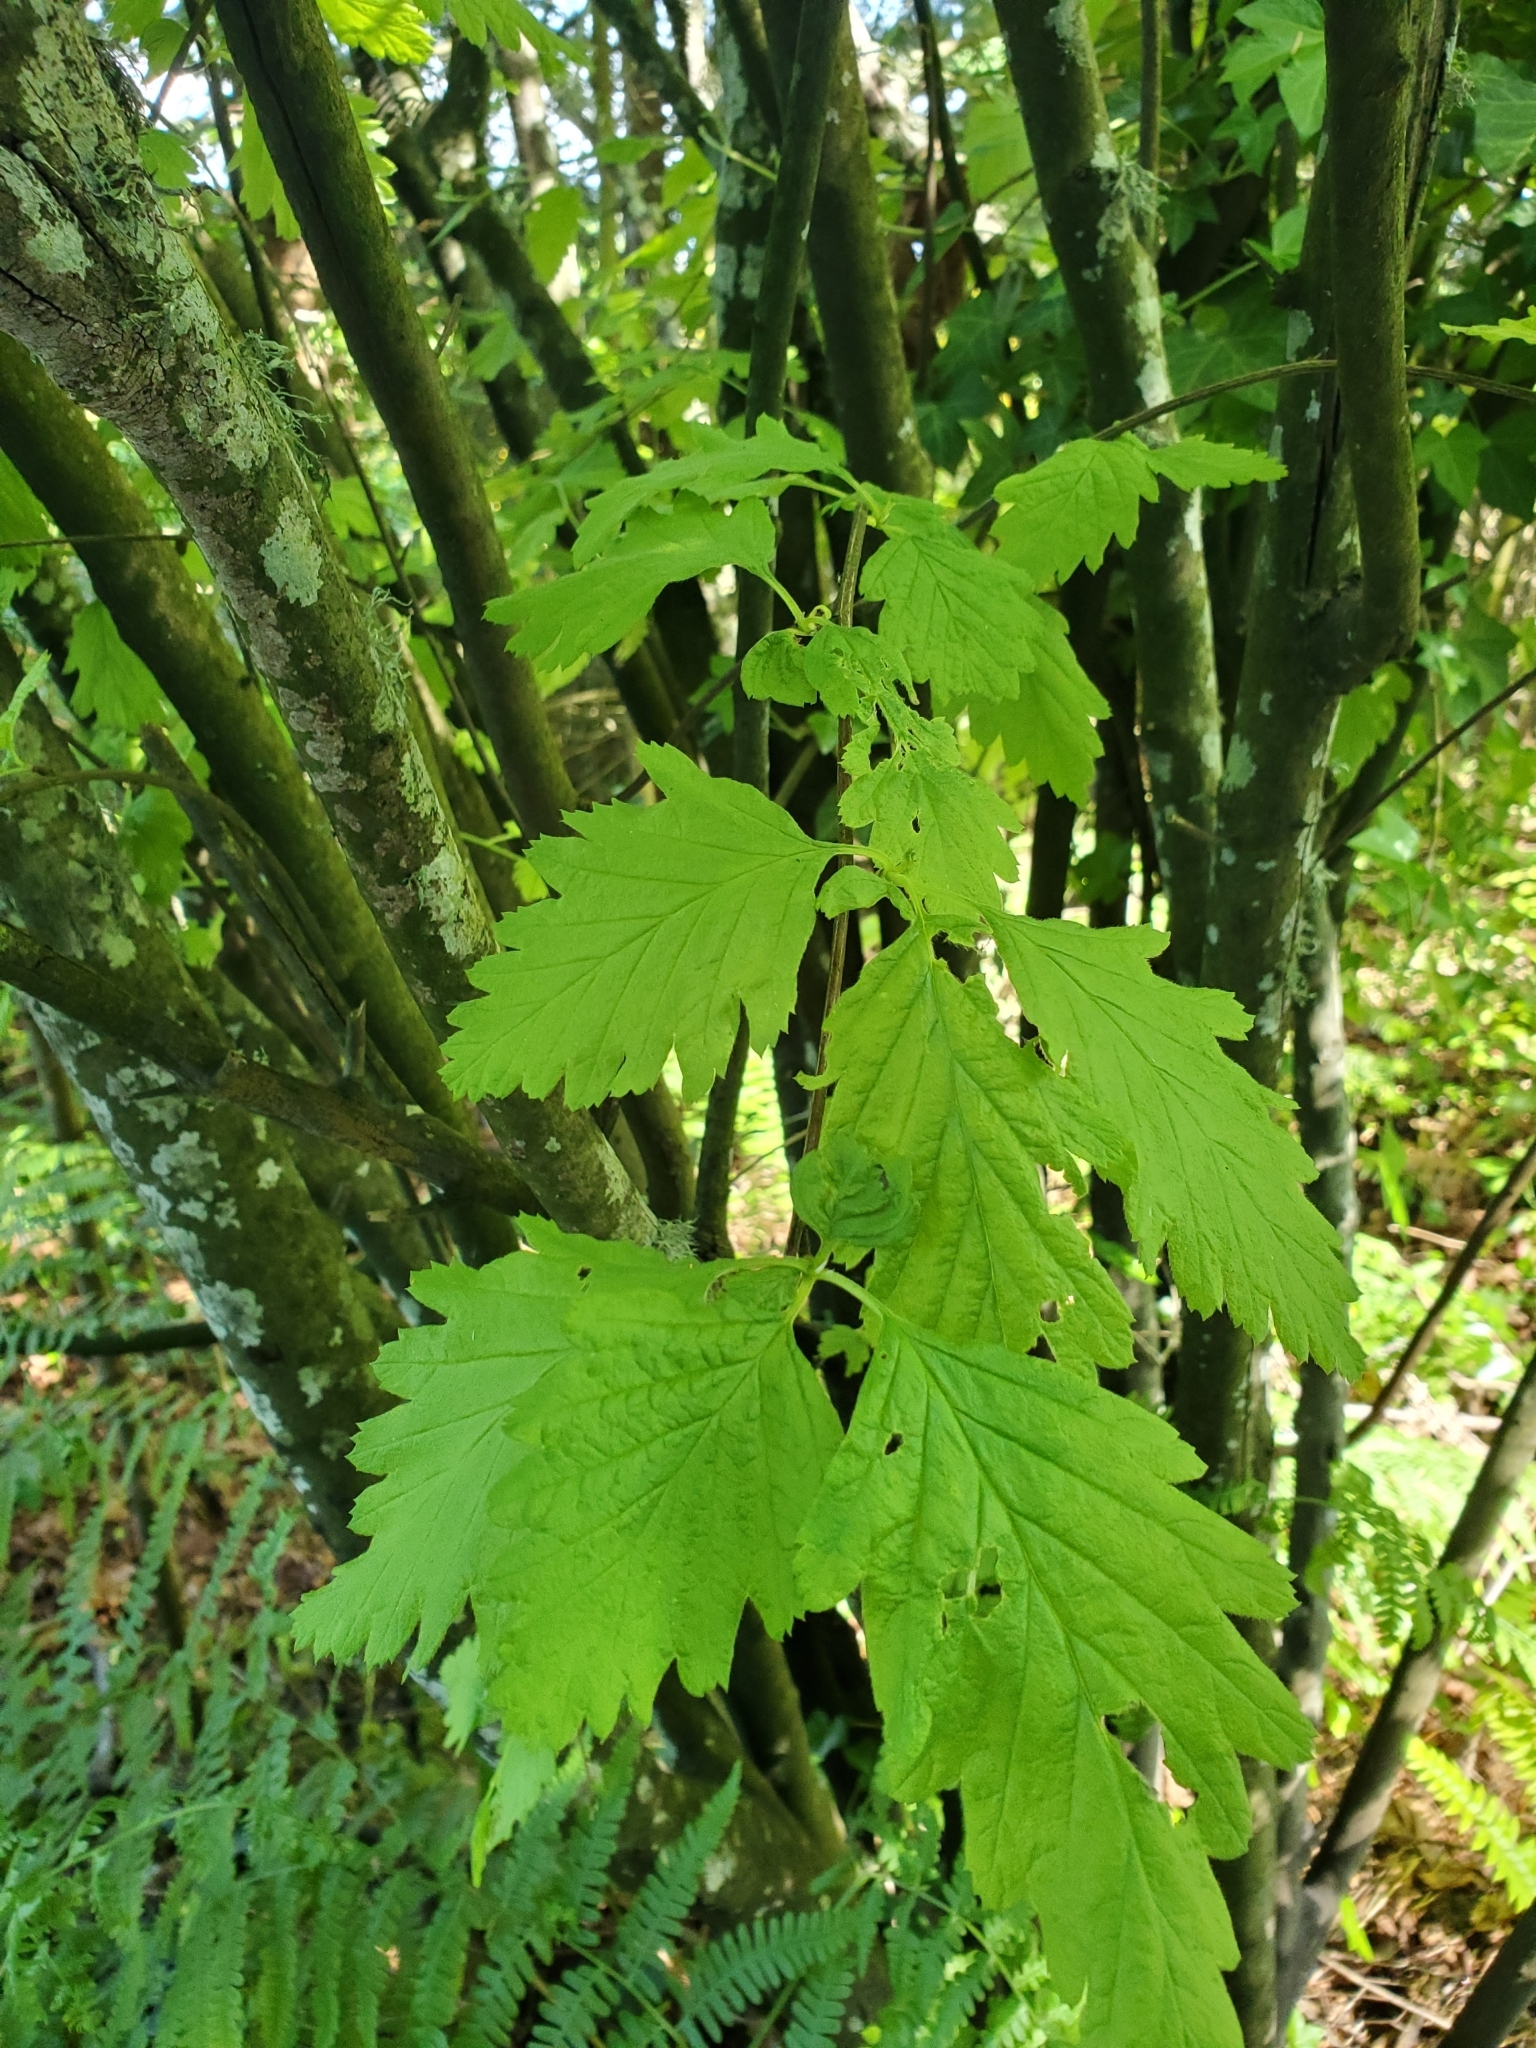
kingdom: Plantae
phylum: Tracheophyta
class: Magnoliopsida
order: Rosales
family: Rosaceae
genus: Holodiscus
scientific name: Holodiscus discolor
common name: Oceanspray
